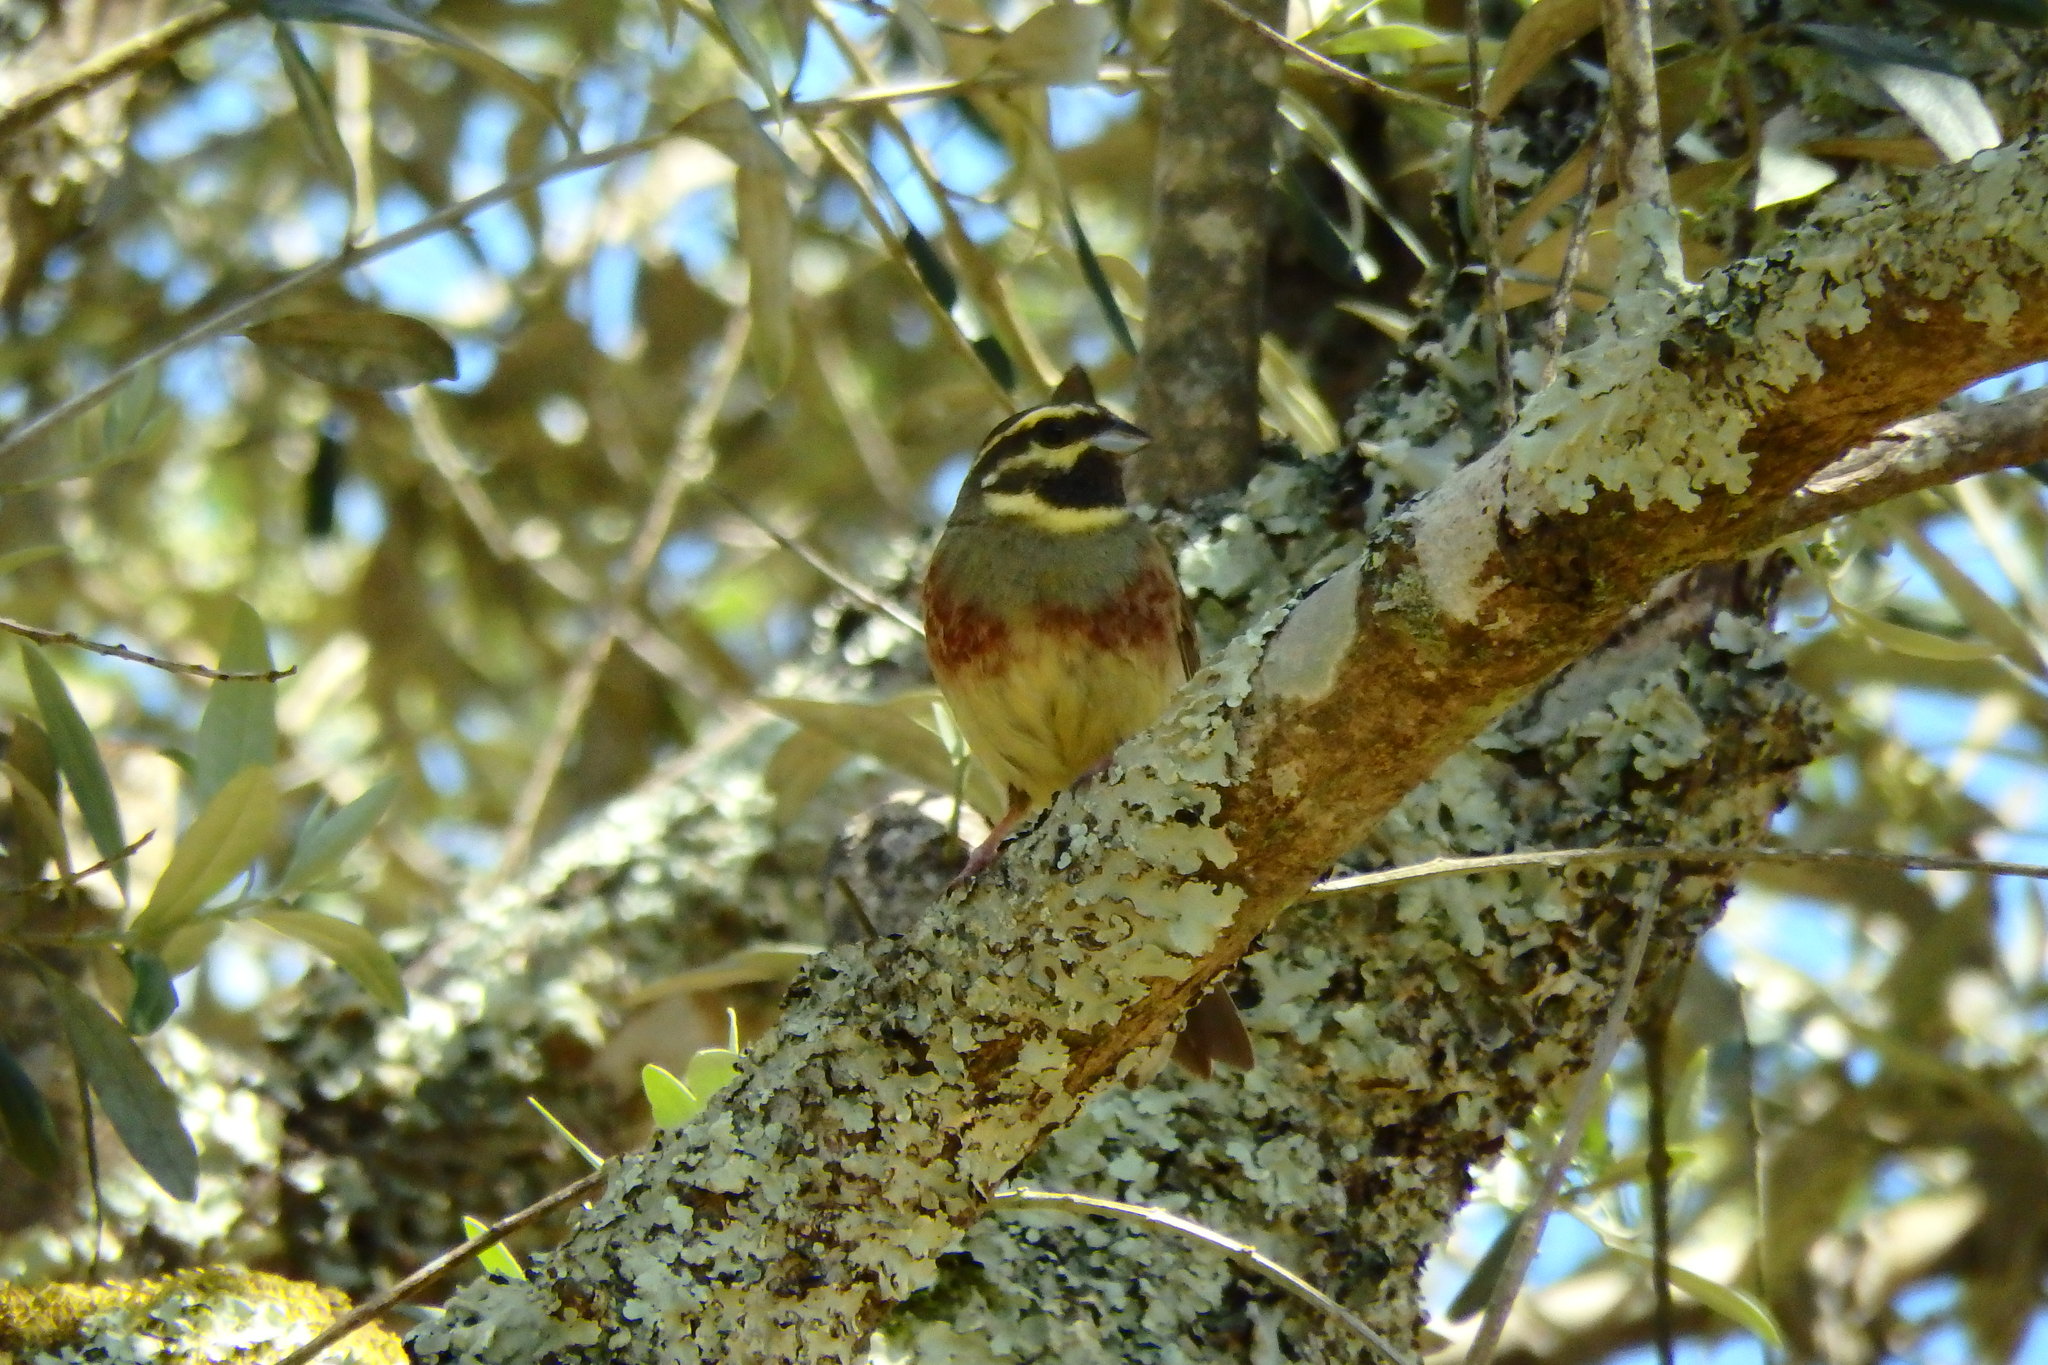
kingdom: Animalia
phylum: Chordata
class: Aves
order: Passeriformes
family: Emberizidae
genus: Emberiza
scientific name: Emberiza cirlus
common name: Cirl bunting
